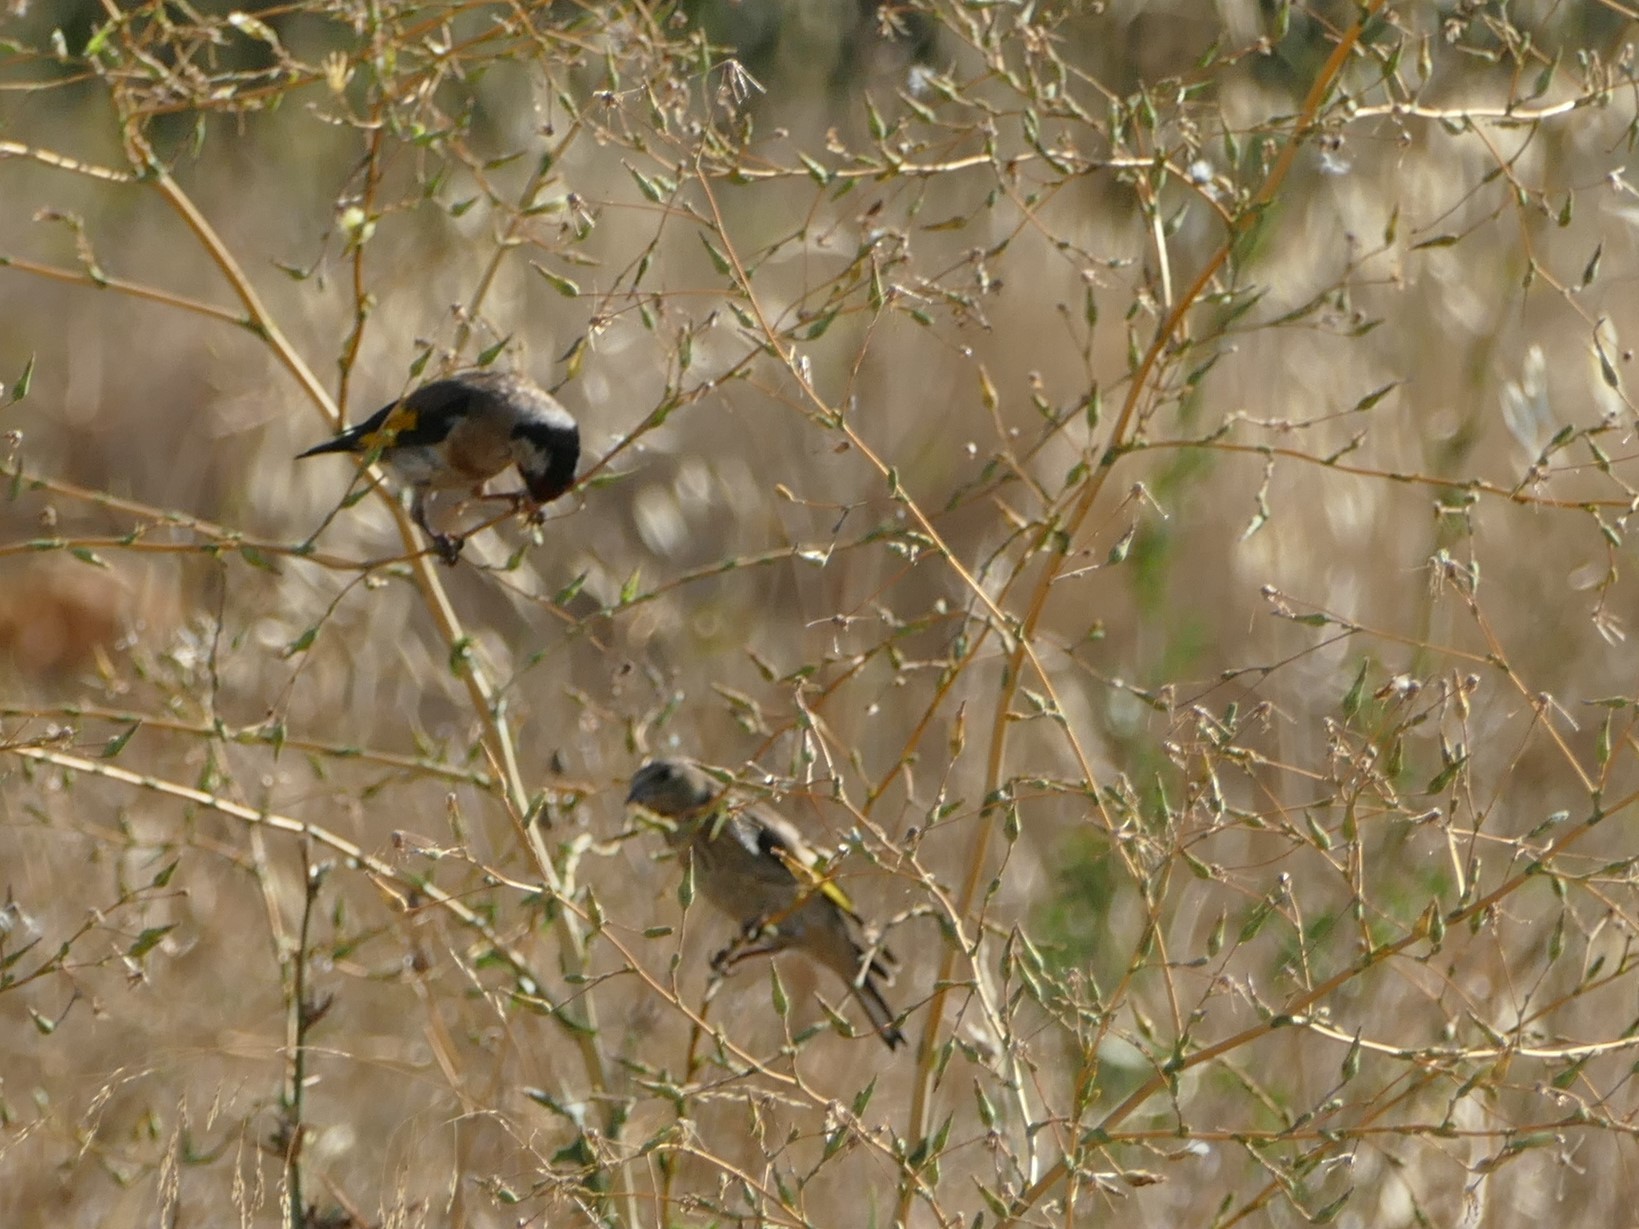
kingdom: Animalia
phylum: Chordata
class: Aves
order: Passeriformes
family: Fringillidae
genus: Carduelis
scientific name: Carduelis carduelis
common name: European goldfinch
